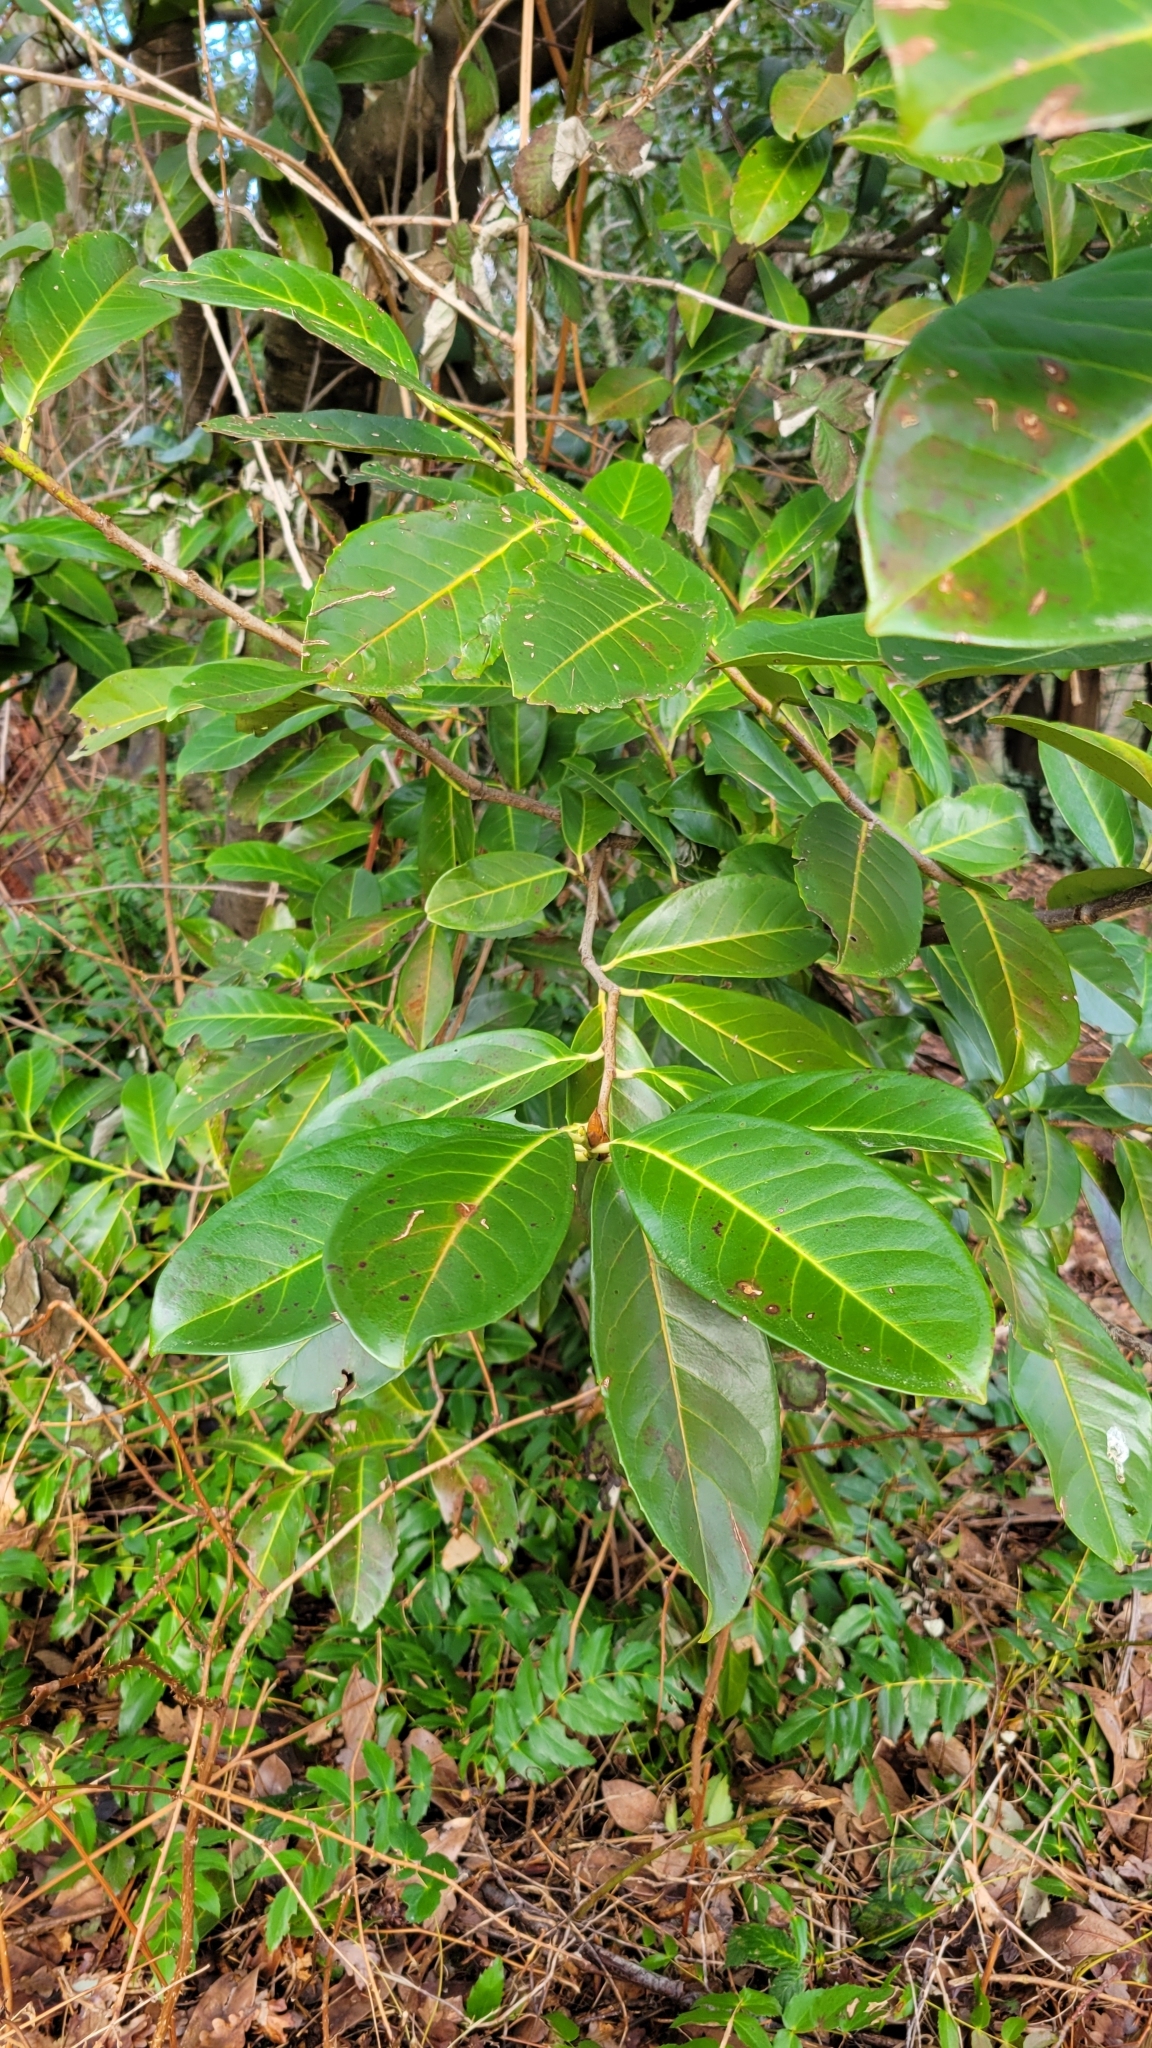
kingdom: Plantae
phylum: Tracheophyta
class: Magnoliopsida
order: Rosales
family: Rosaceae
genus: Prunus
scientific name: Prunus laurocerasus
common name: Cherry laurel
